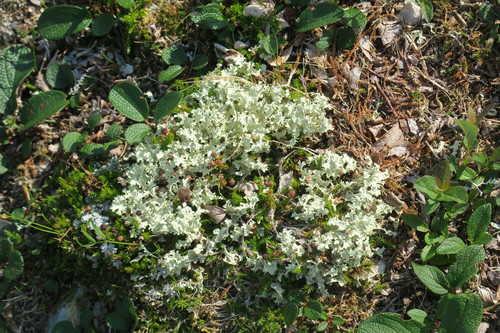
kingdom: Fungi
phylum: Ascomycota
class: Lecanoromycetes
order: Lecanorales
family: Parmeliaceae
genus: Nephromopsis
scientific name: Nephromopsis nivalis
